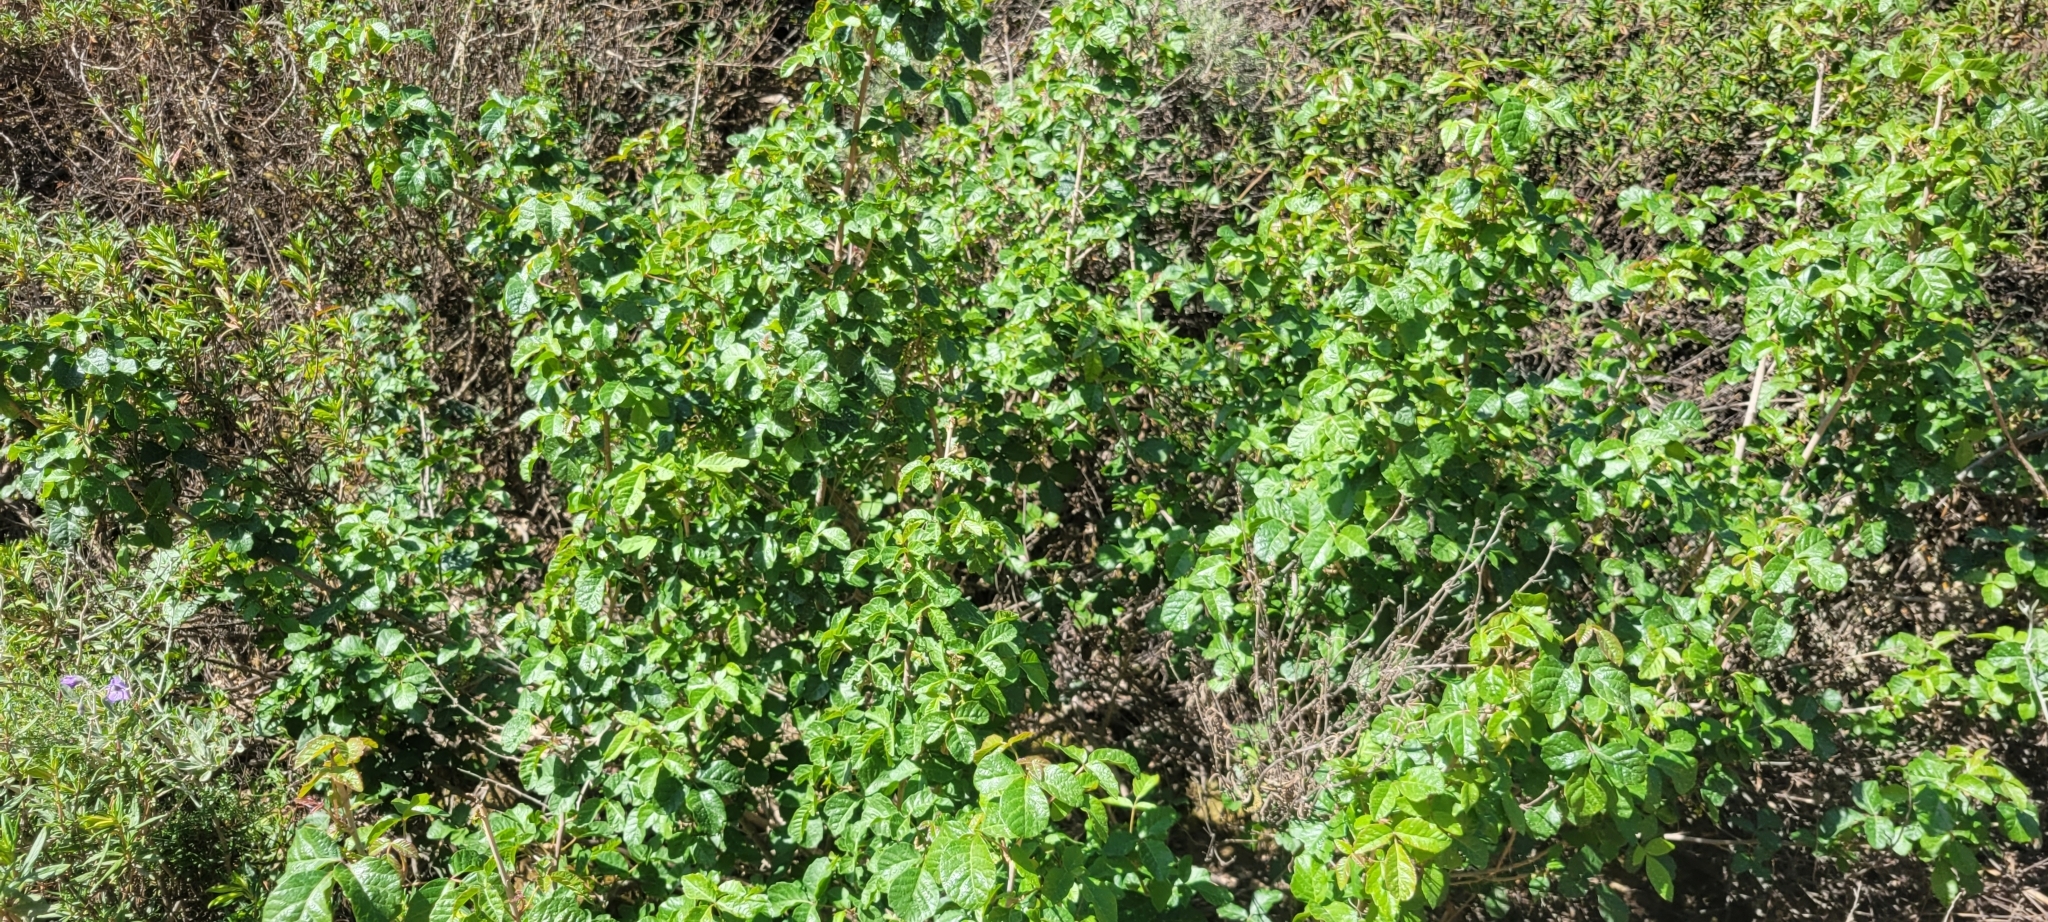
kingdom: Plantae
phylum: Tracheophyta
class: Magnoliopsida
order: Sapindales
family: Anacardiaceae
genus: Toxicodendron
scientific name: Toxicodendron diversilobum
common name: Pacific poison-oak
